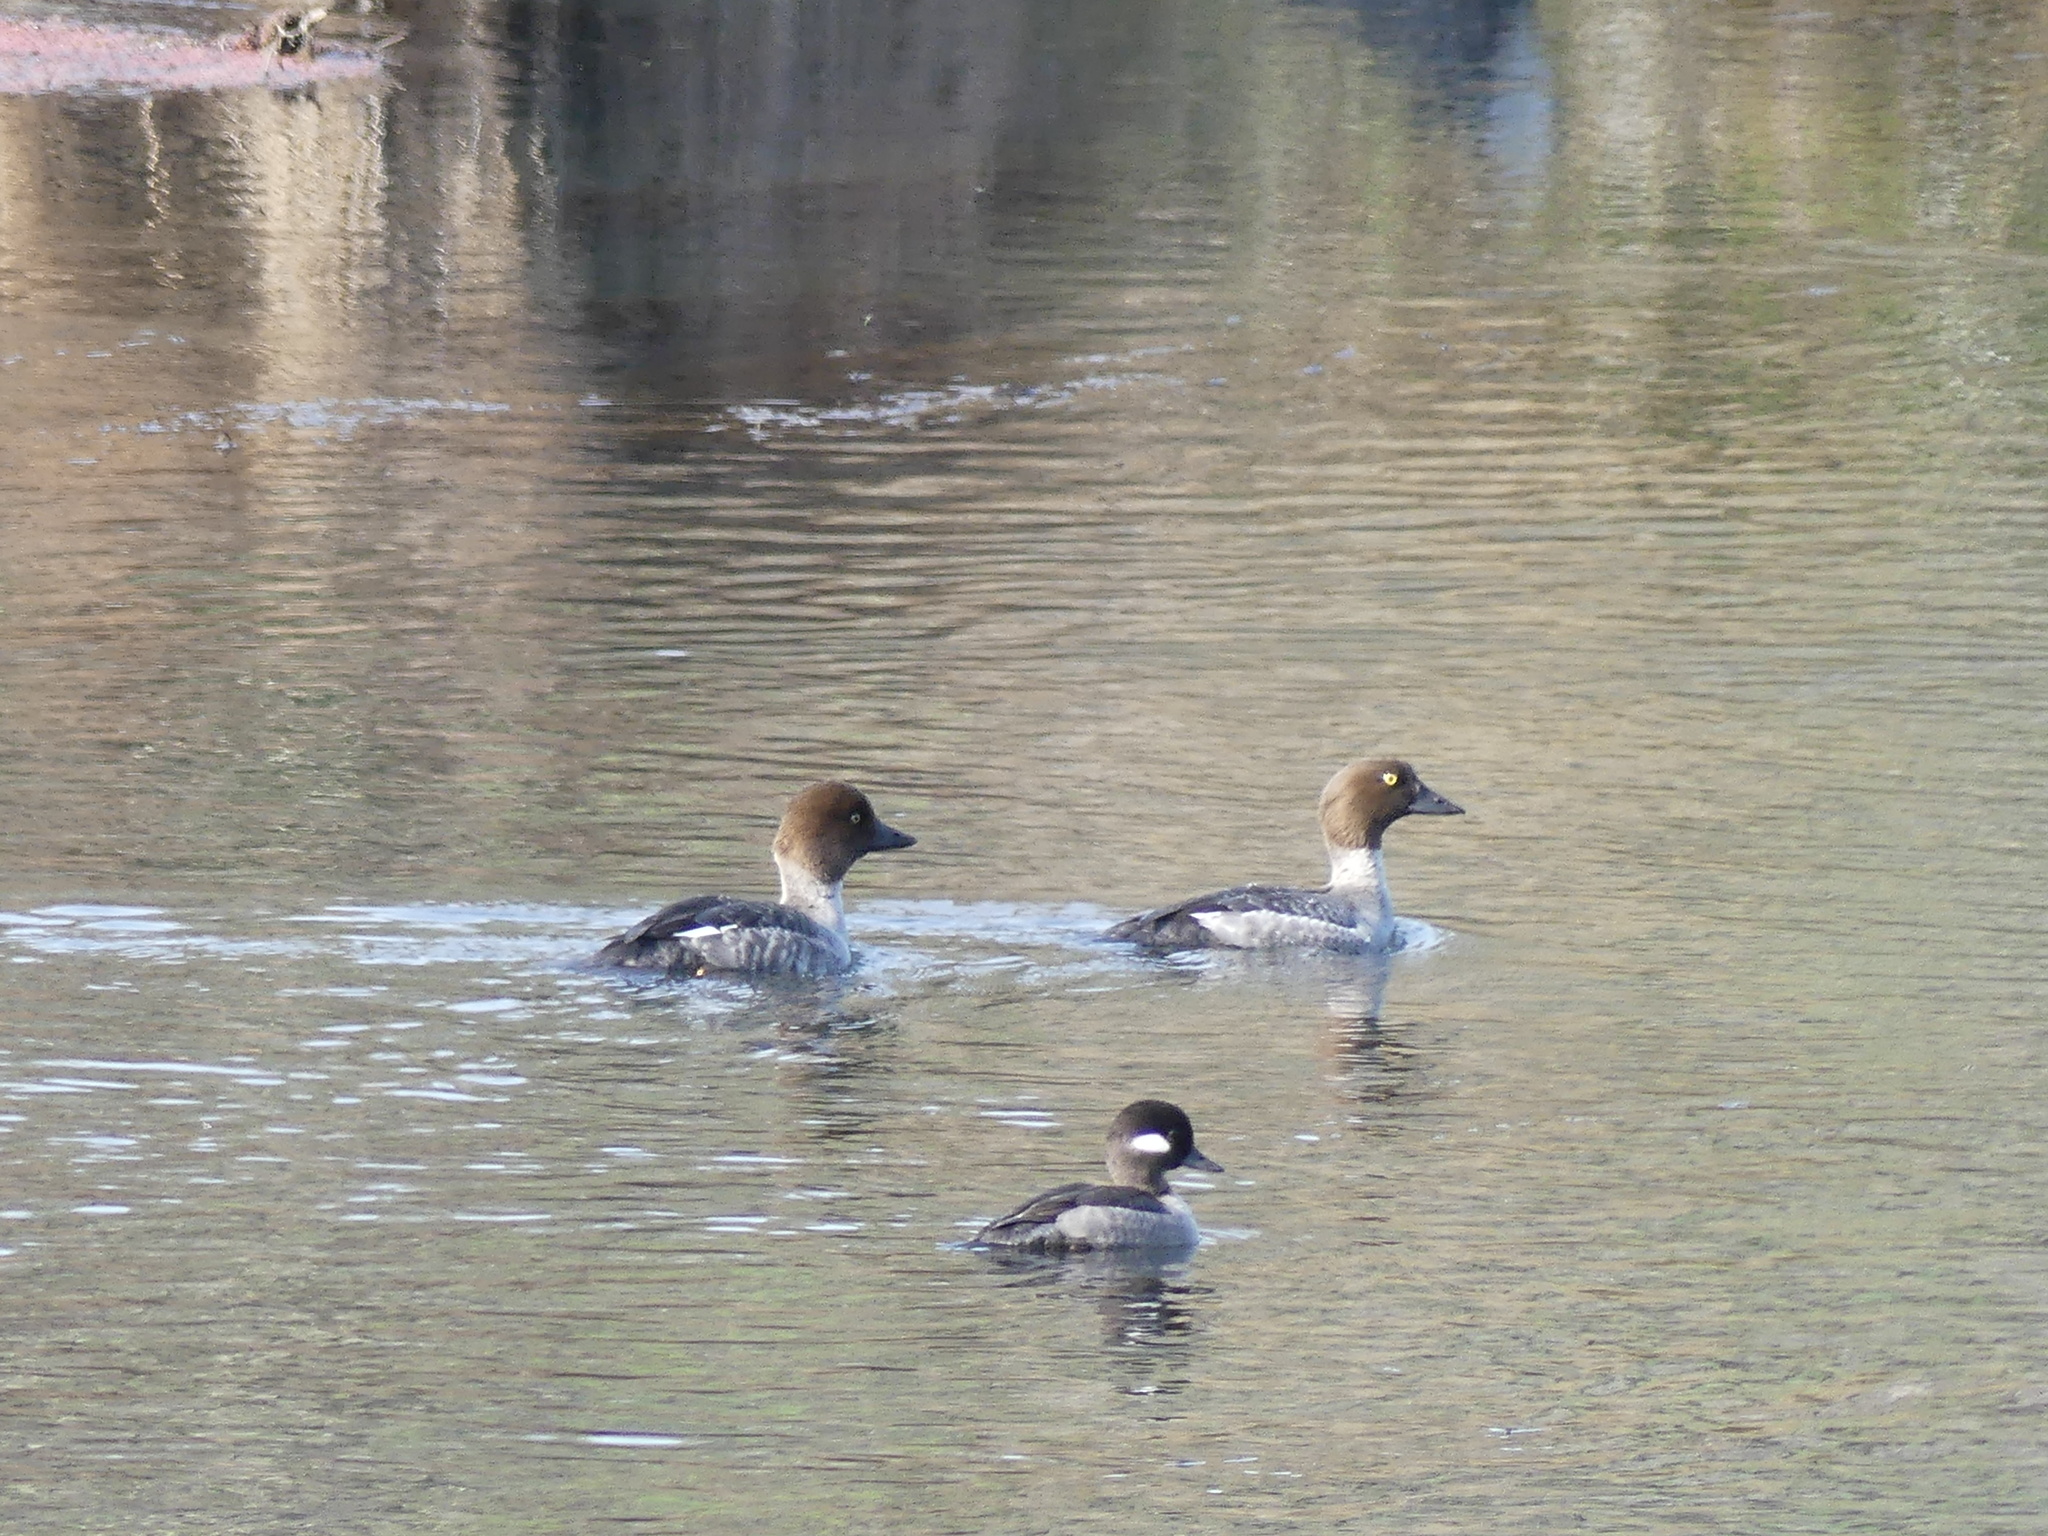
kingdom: Animalia
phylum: Chordata
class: Aves
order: Anseriformes
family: Anatidae
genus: Bucephala
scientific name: Bucephala clangula
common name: Common goldeneye
